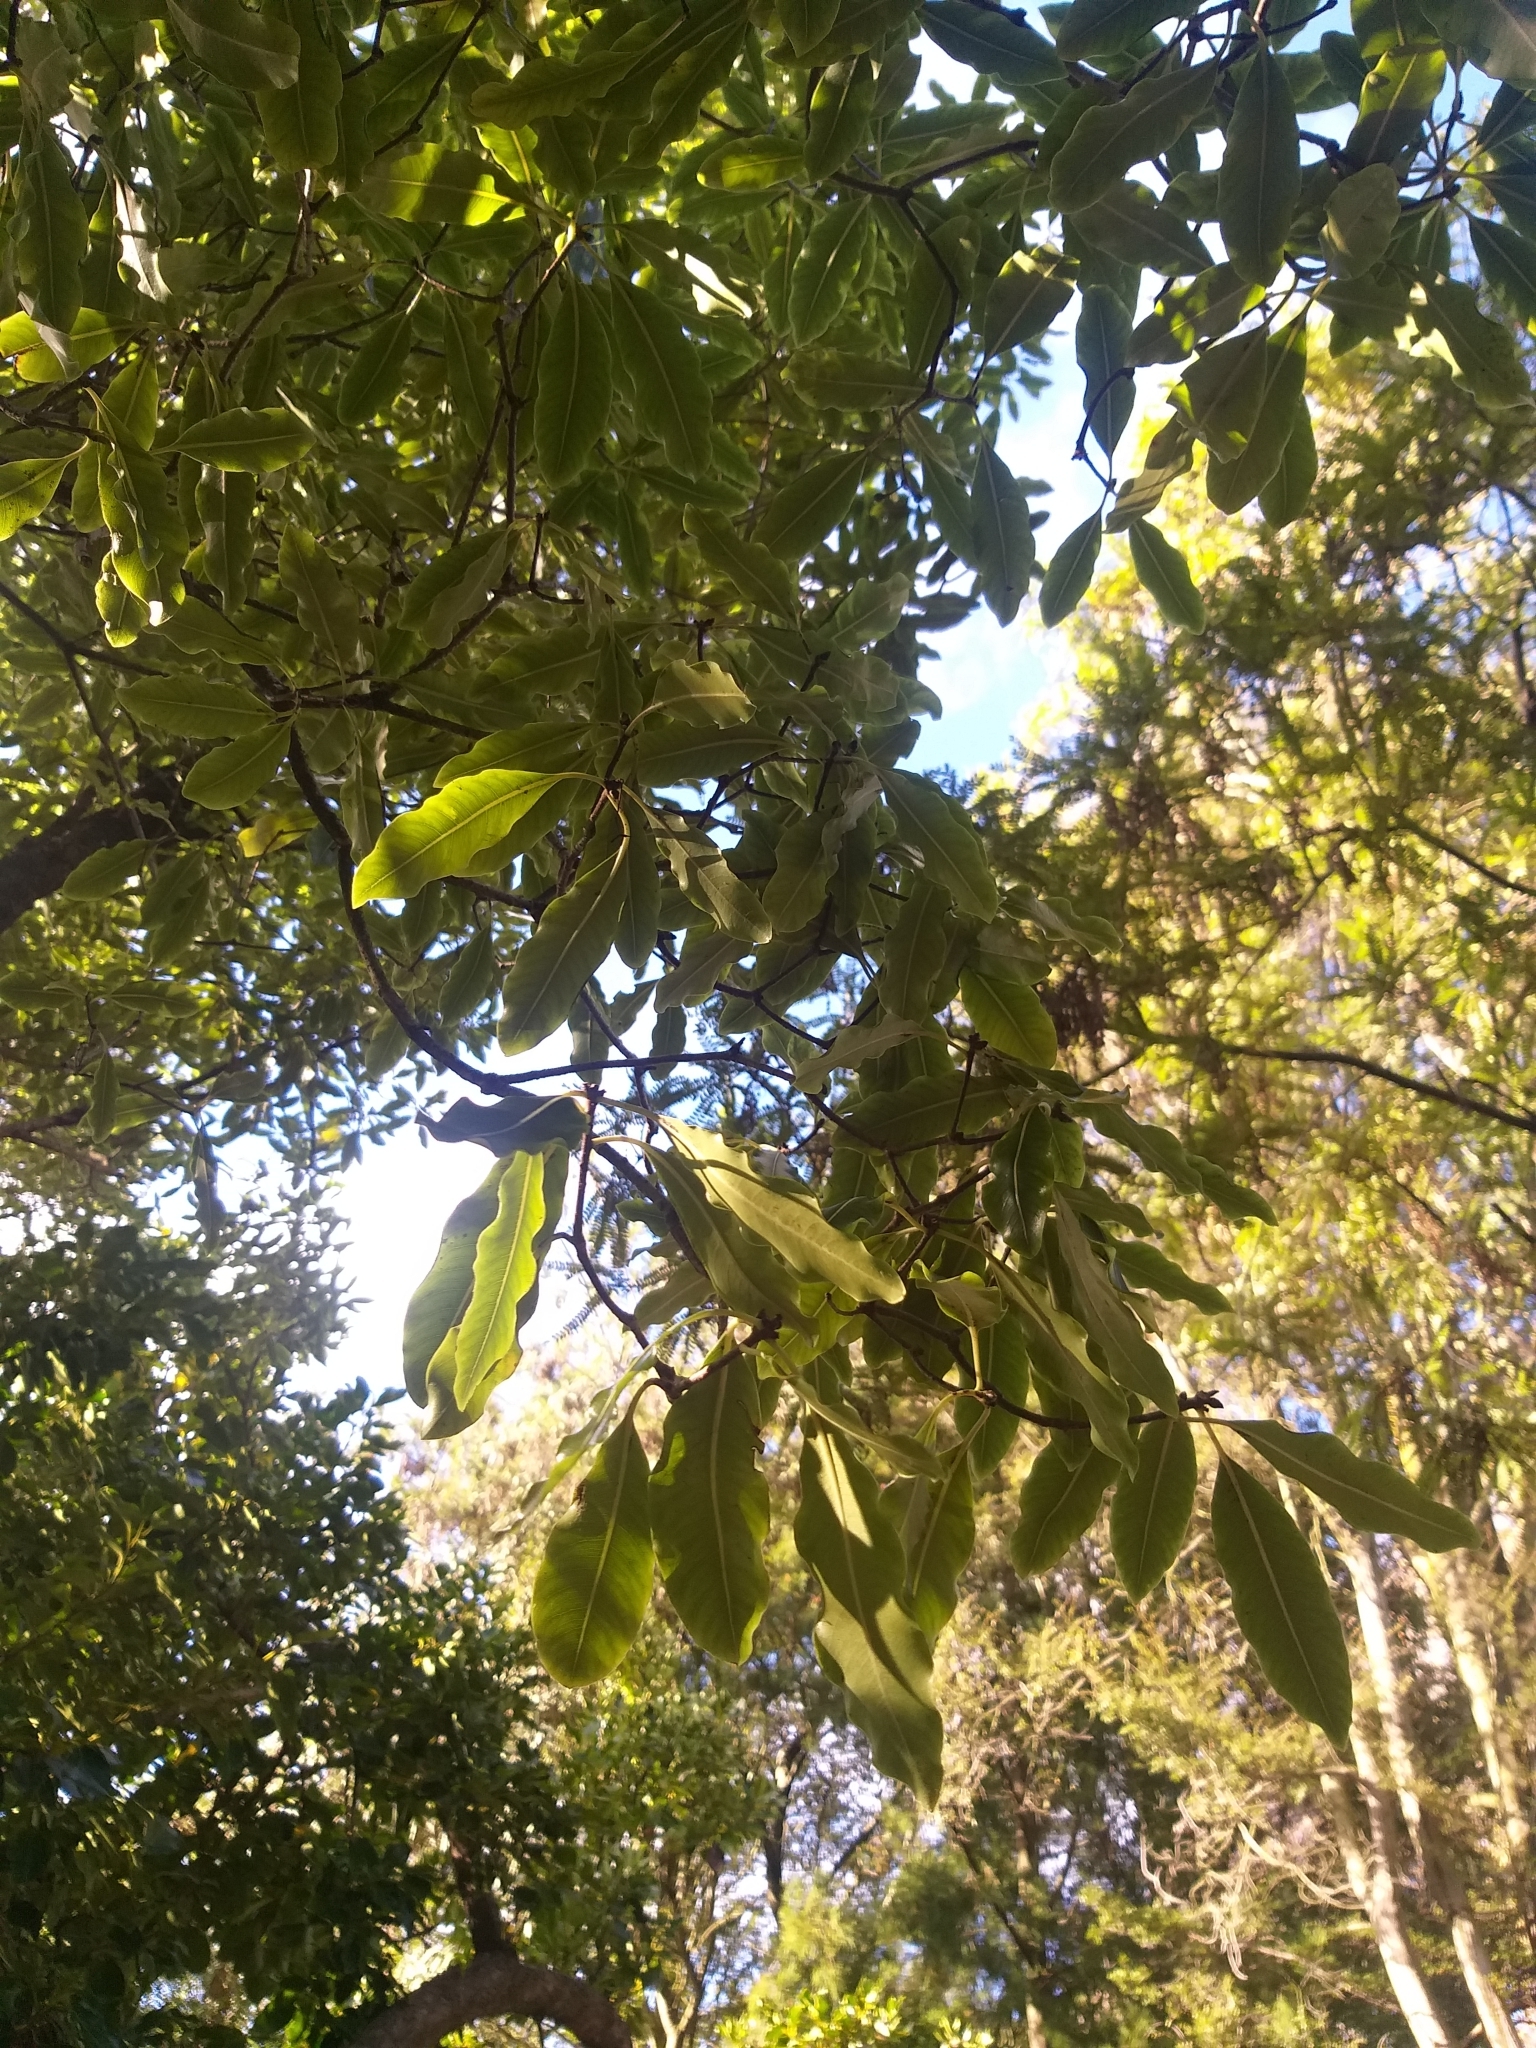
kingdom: Plantae
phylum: Tracheophyta
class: Magnoliopsida
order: Apiales
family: Pittosporaceae
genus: Pittosporum
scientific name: Pittosporum eugenioides
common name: Lemonwood
